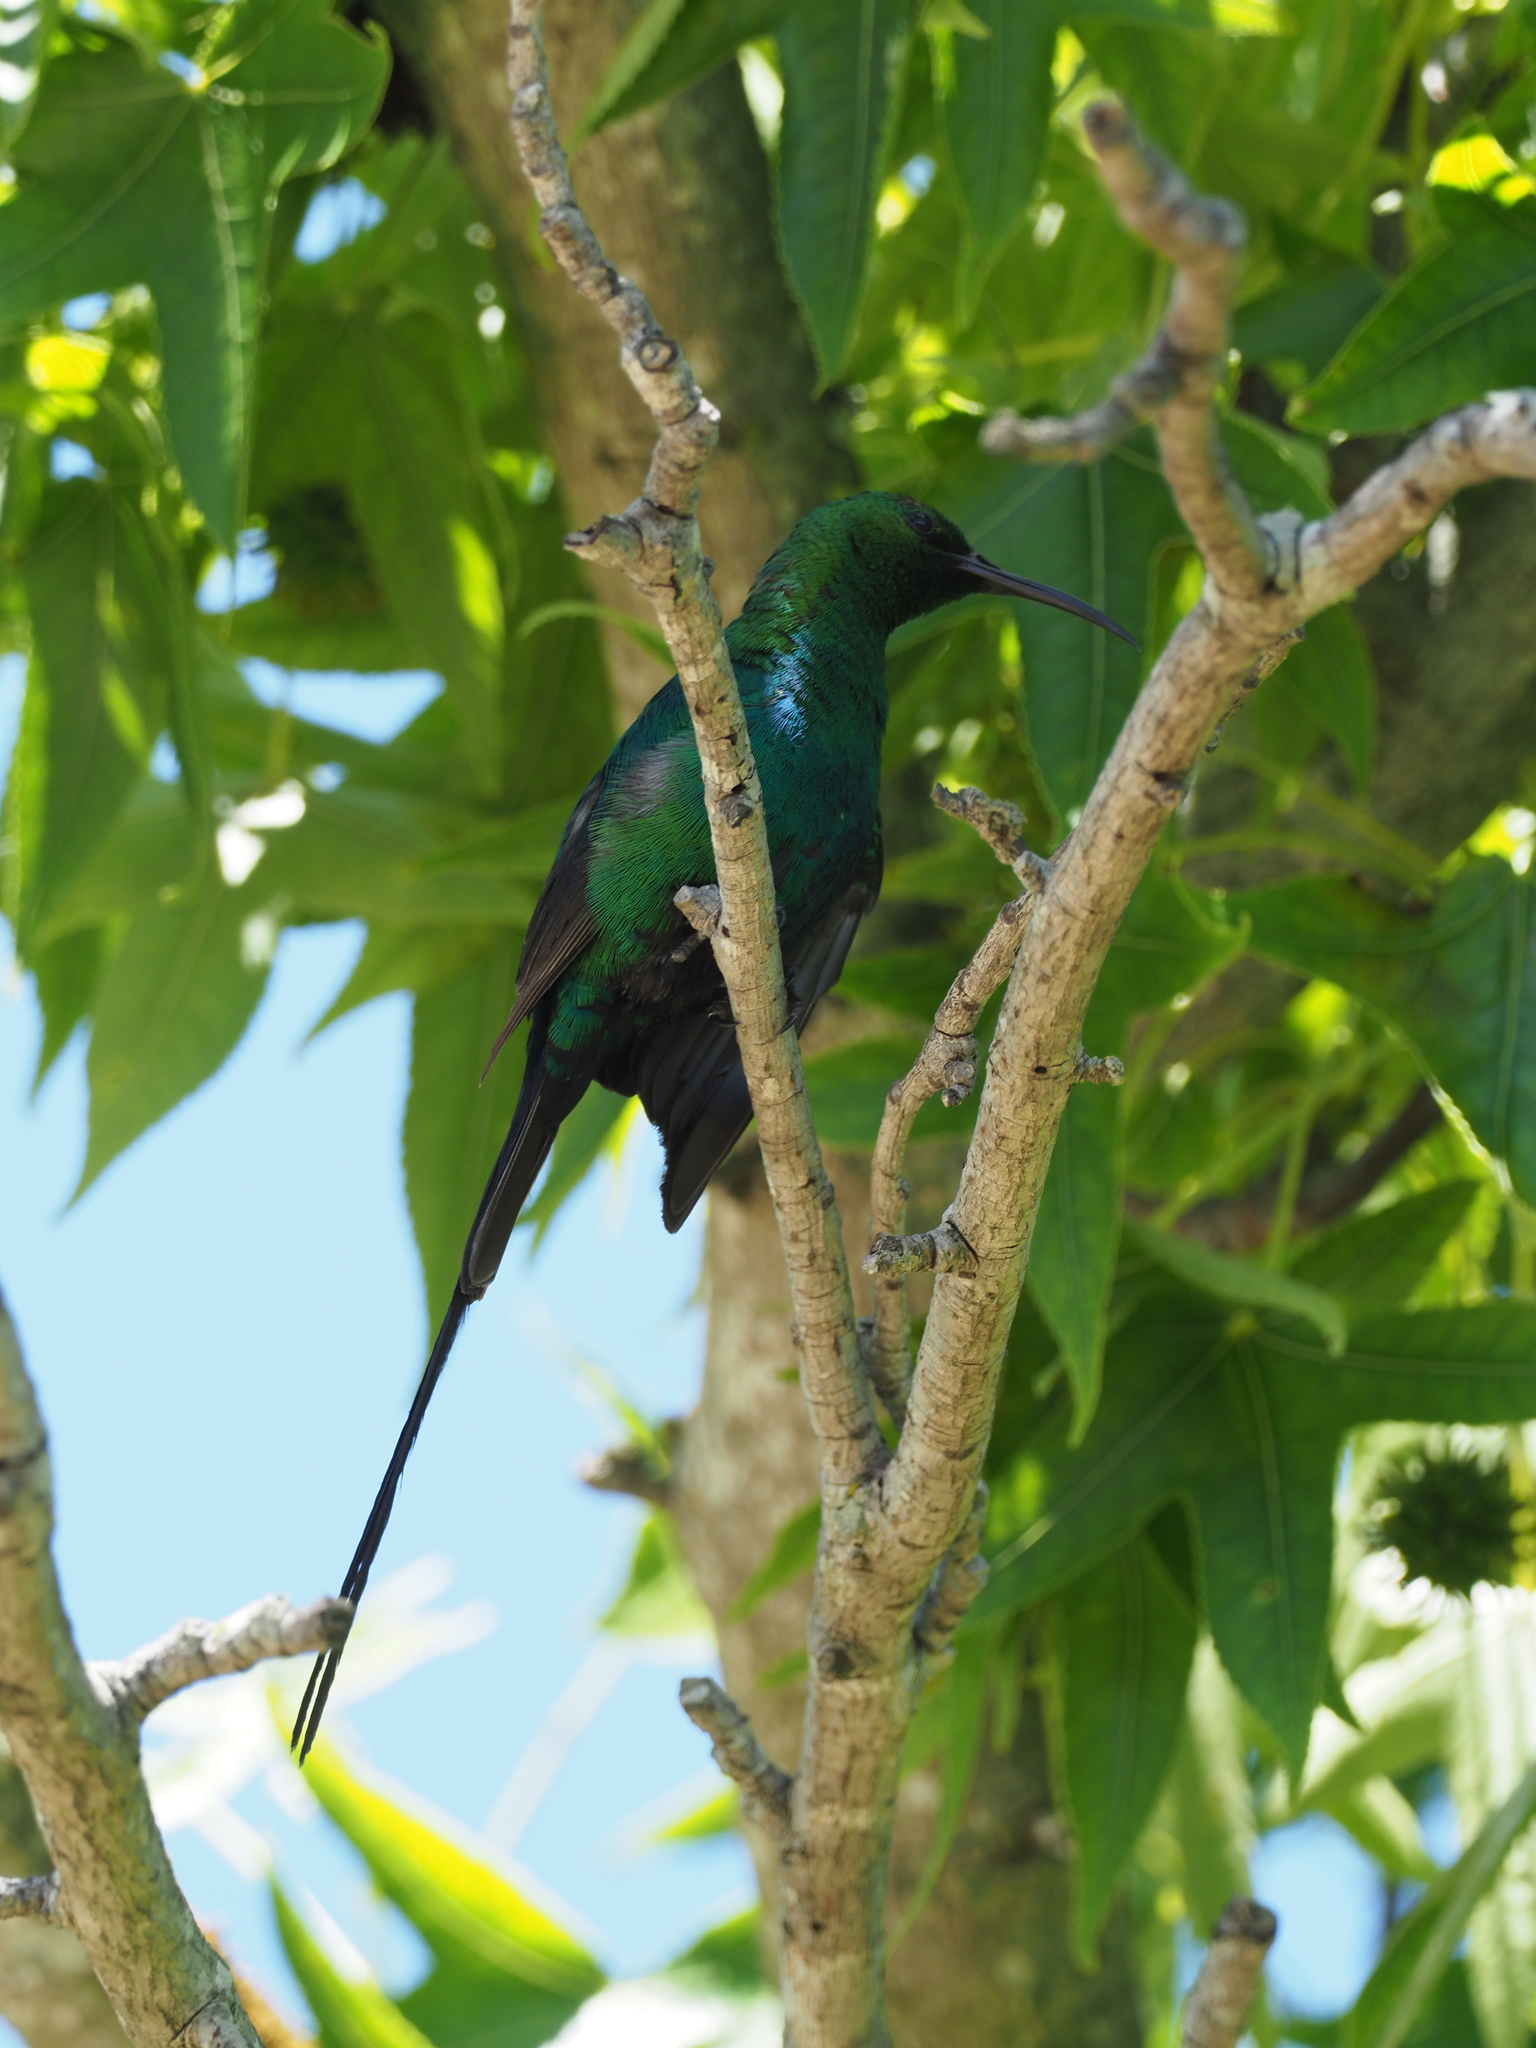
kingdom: Animalia
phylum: Chordata
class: Aves
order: Passeriformes
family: Nectariniidae
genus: Nectarinia
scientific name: Nectarinia famosa
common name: Malachite sunbird
